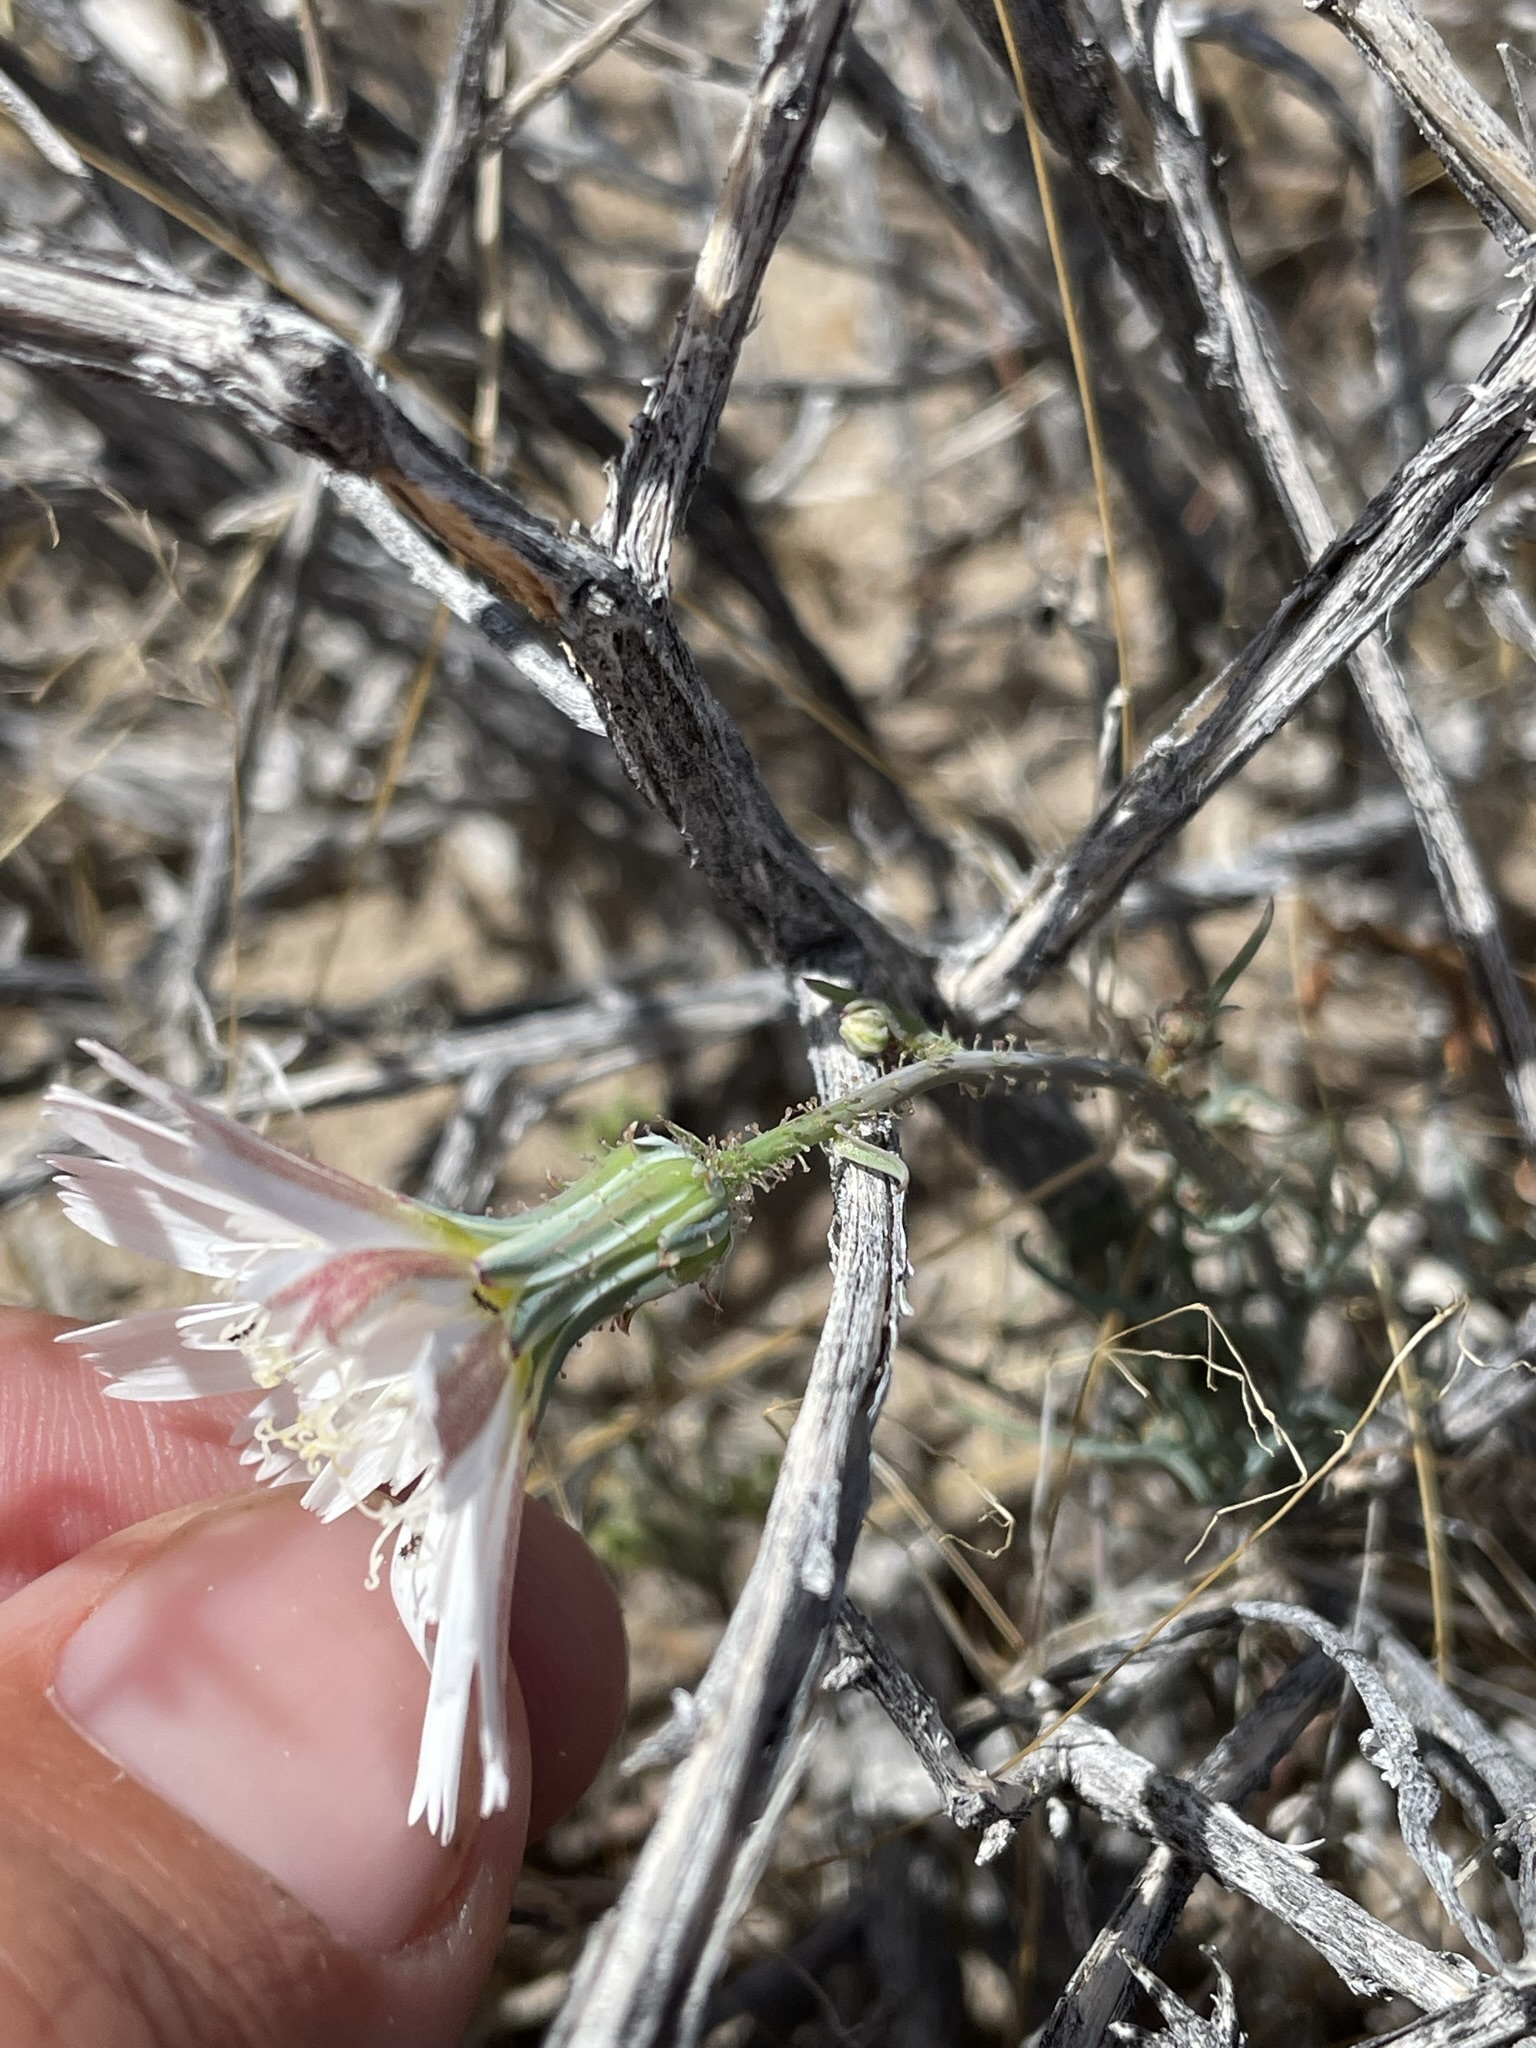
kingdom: Plantae
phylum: Tracheophyta
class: Magnoliopsida
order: Asterales
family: Asteraceae
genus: Calycoseris
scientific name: Calycoseris wrightii
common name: White tackstem
